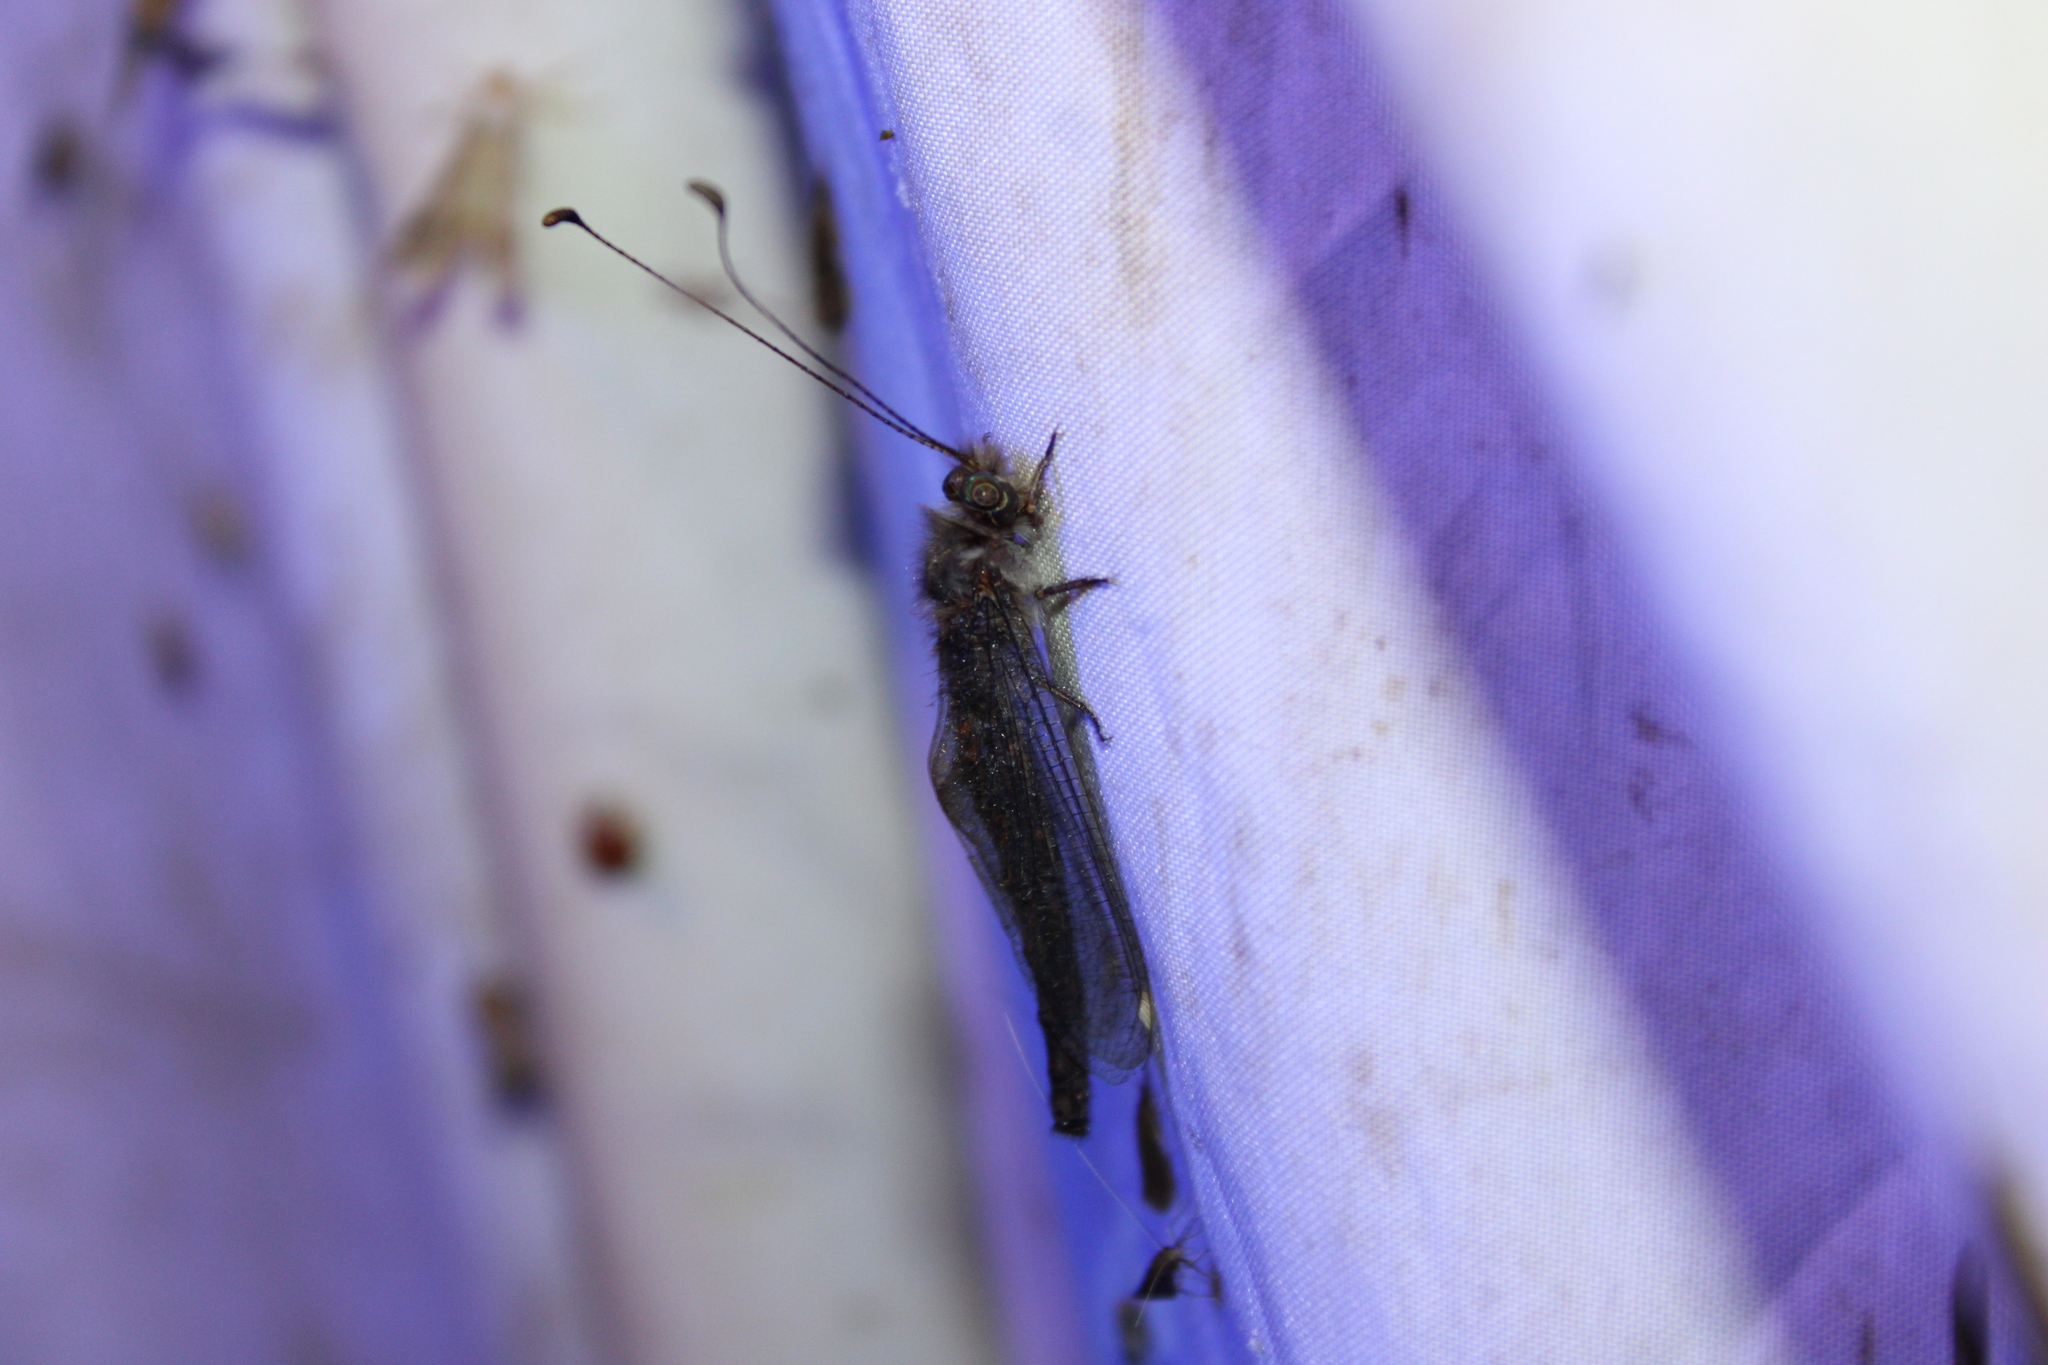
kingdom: Animalia
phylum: Arthropoda
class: Insecta
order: Neuroptera
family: Ascalaphidae
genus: Ululodes
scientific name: Ululodes quadripunctatus
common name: Four-spotted owlfly
